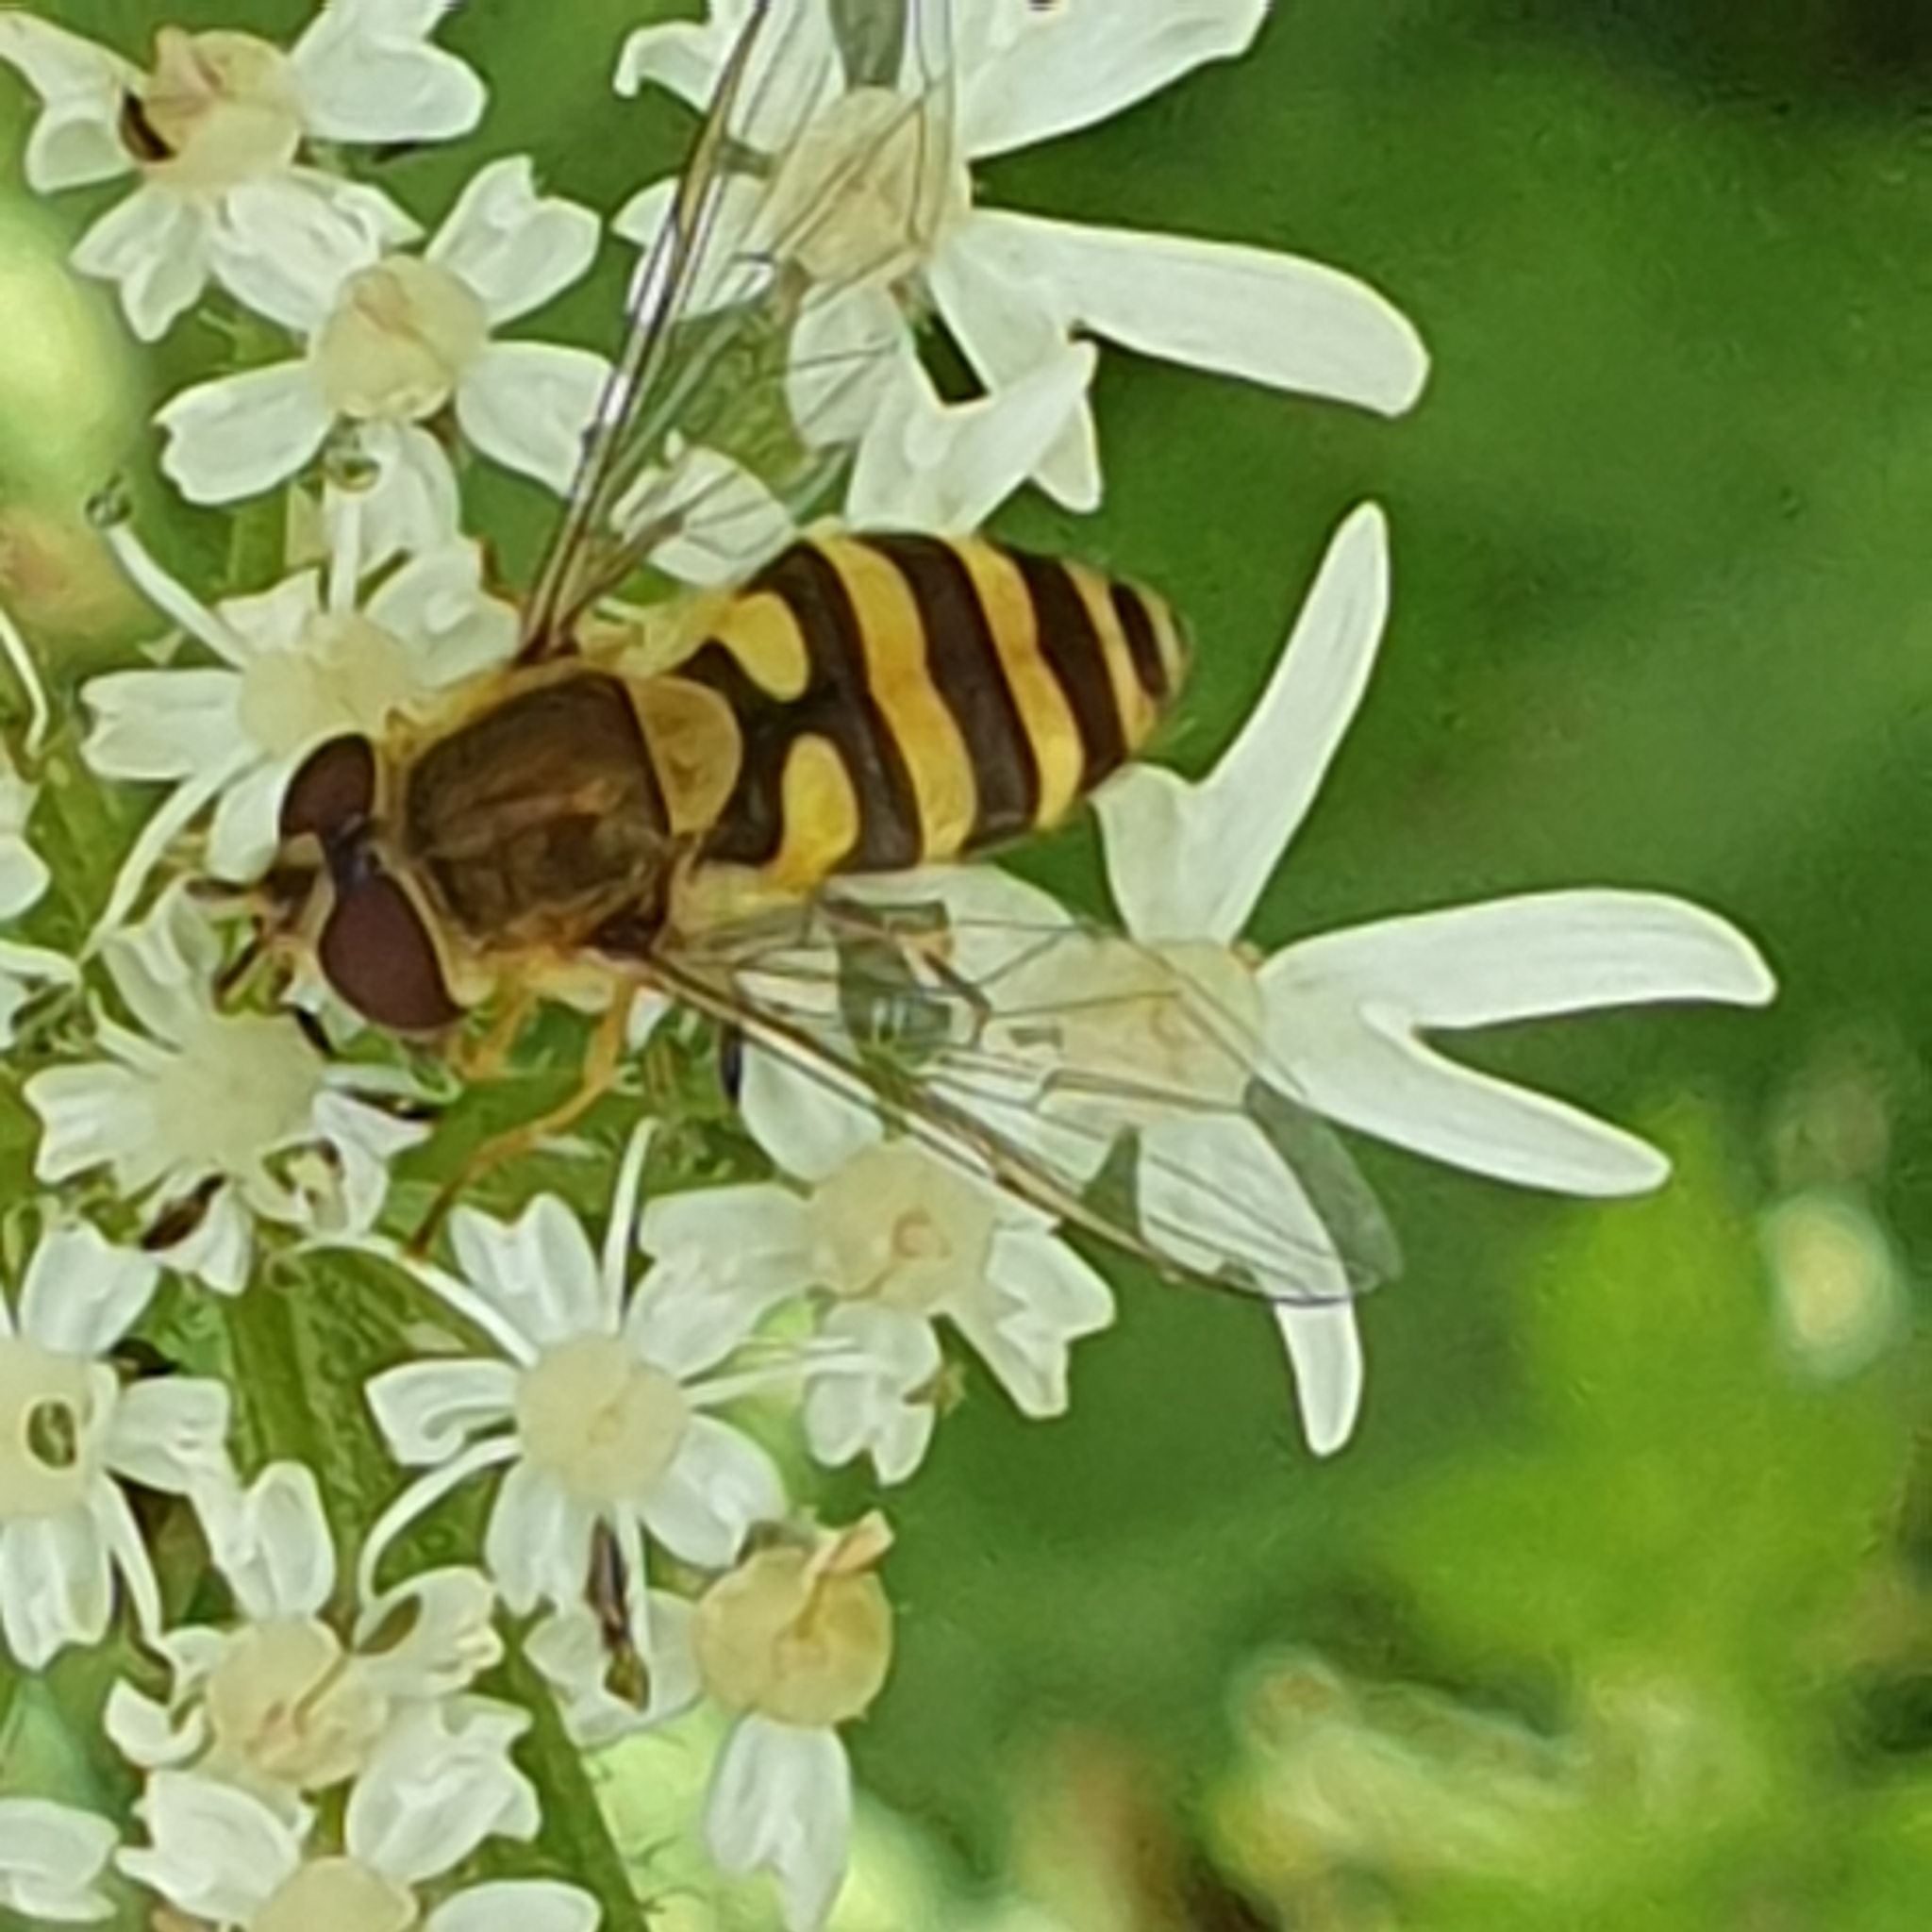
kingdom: Animalia
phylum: Arthropoda
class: Insecta
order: Diptera
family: Syrphidae
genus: Syrphus
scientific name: Syrphus
